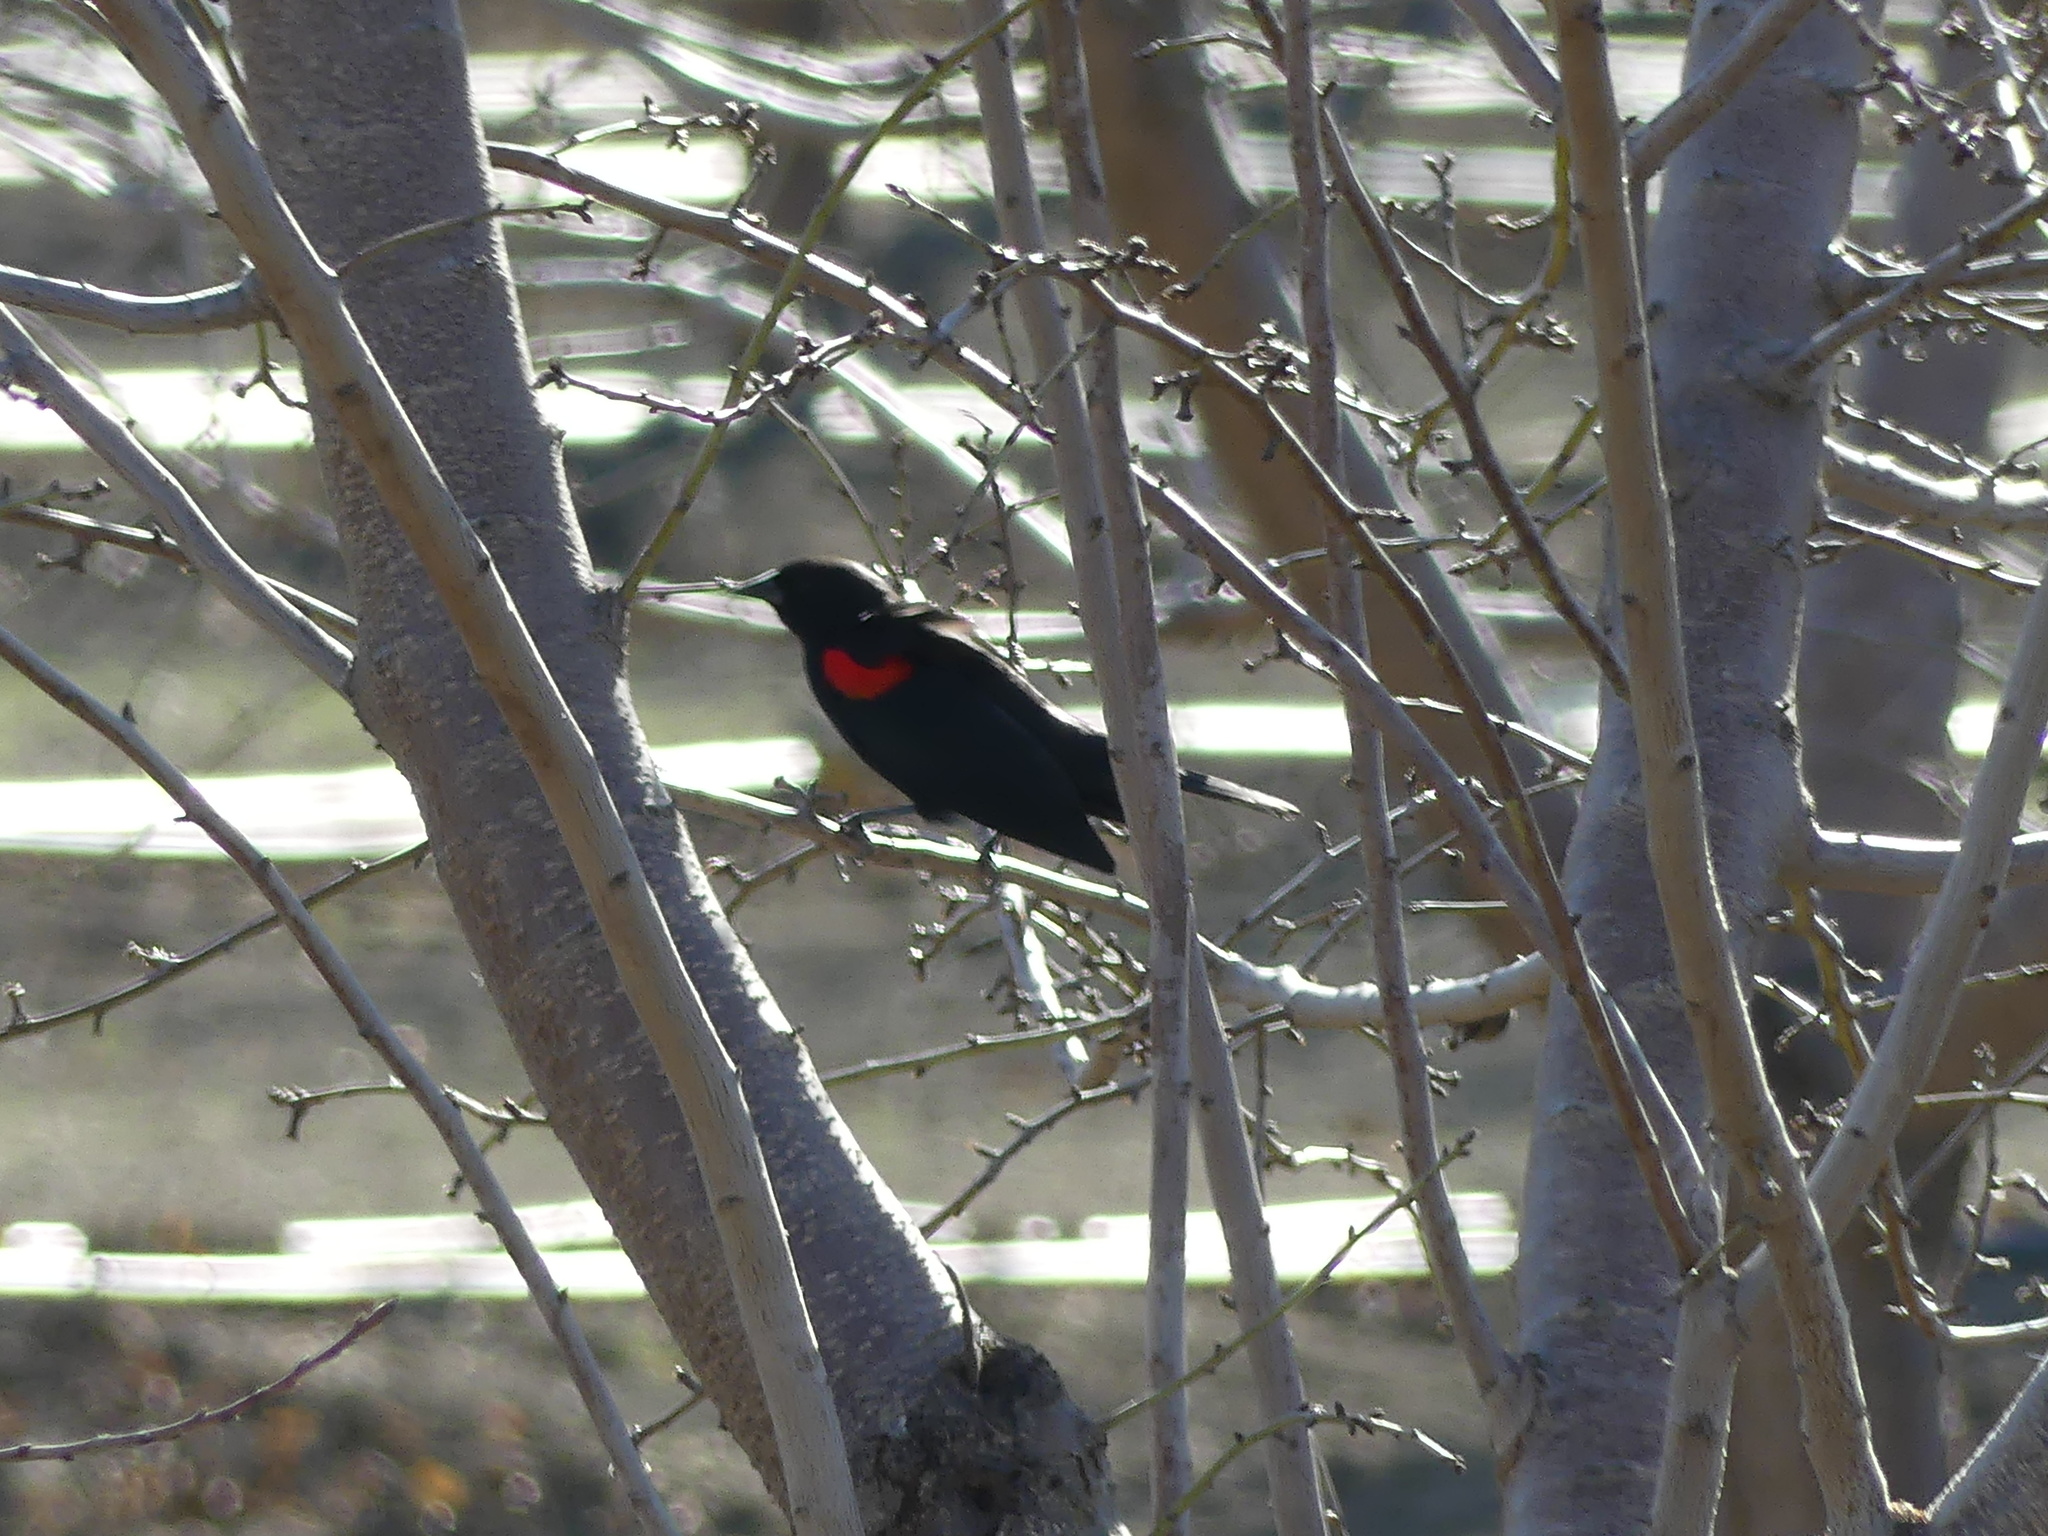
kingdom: Animalia
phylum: Chordata
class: Aves
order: Passeriformes
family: Icteridae
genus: Agelaius
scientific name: Agelaius phoeniceus
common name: Red-winged blackbird
